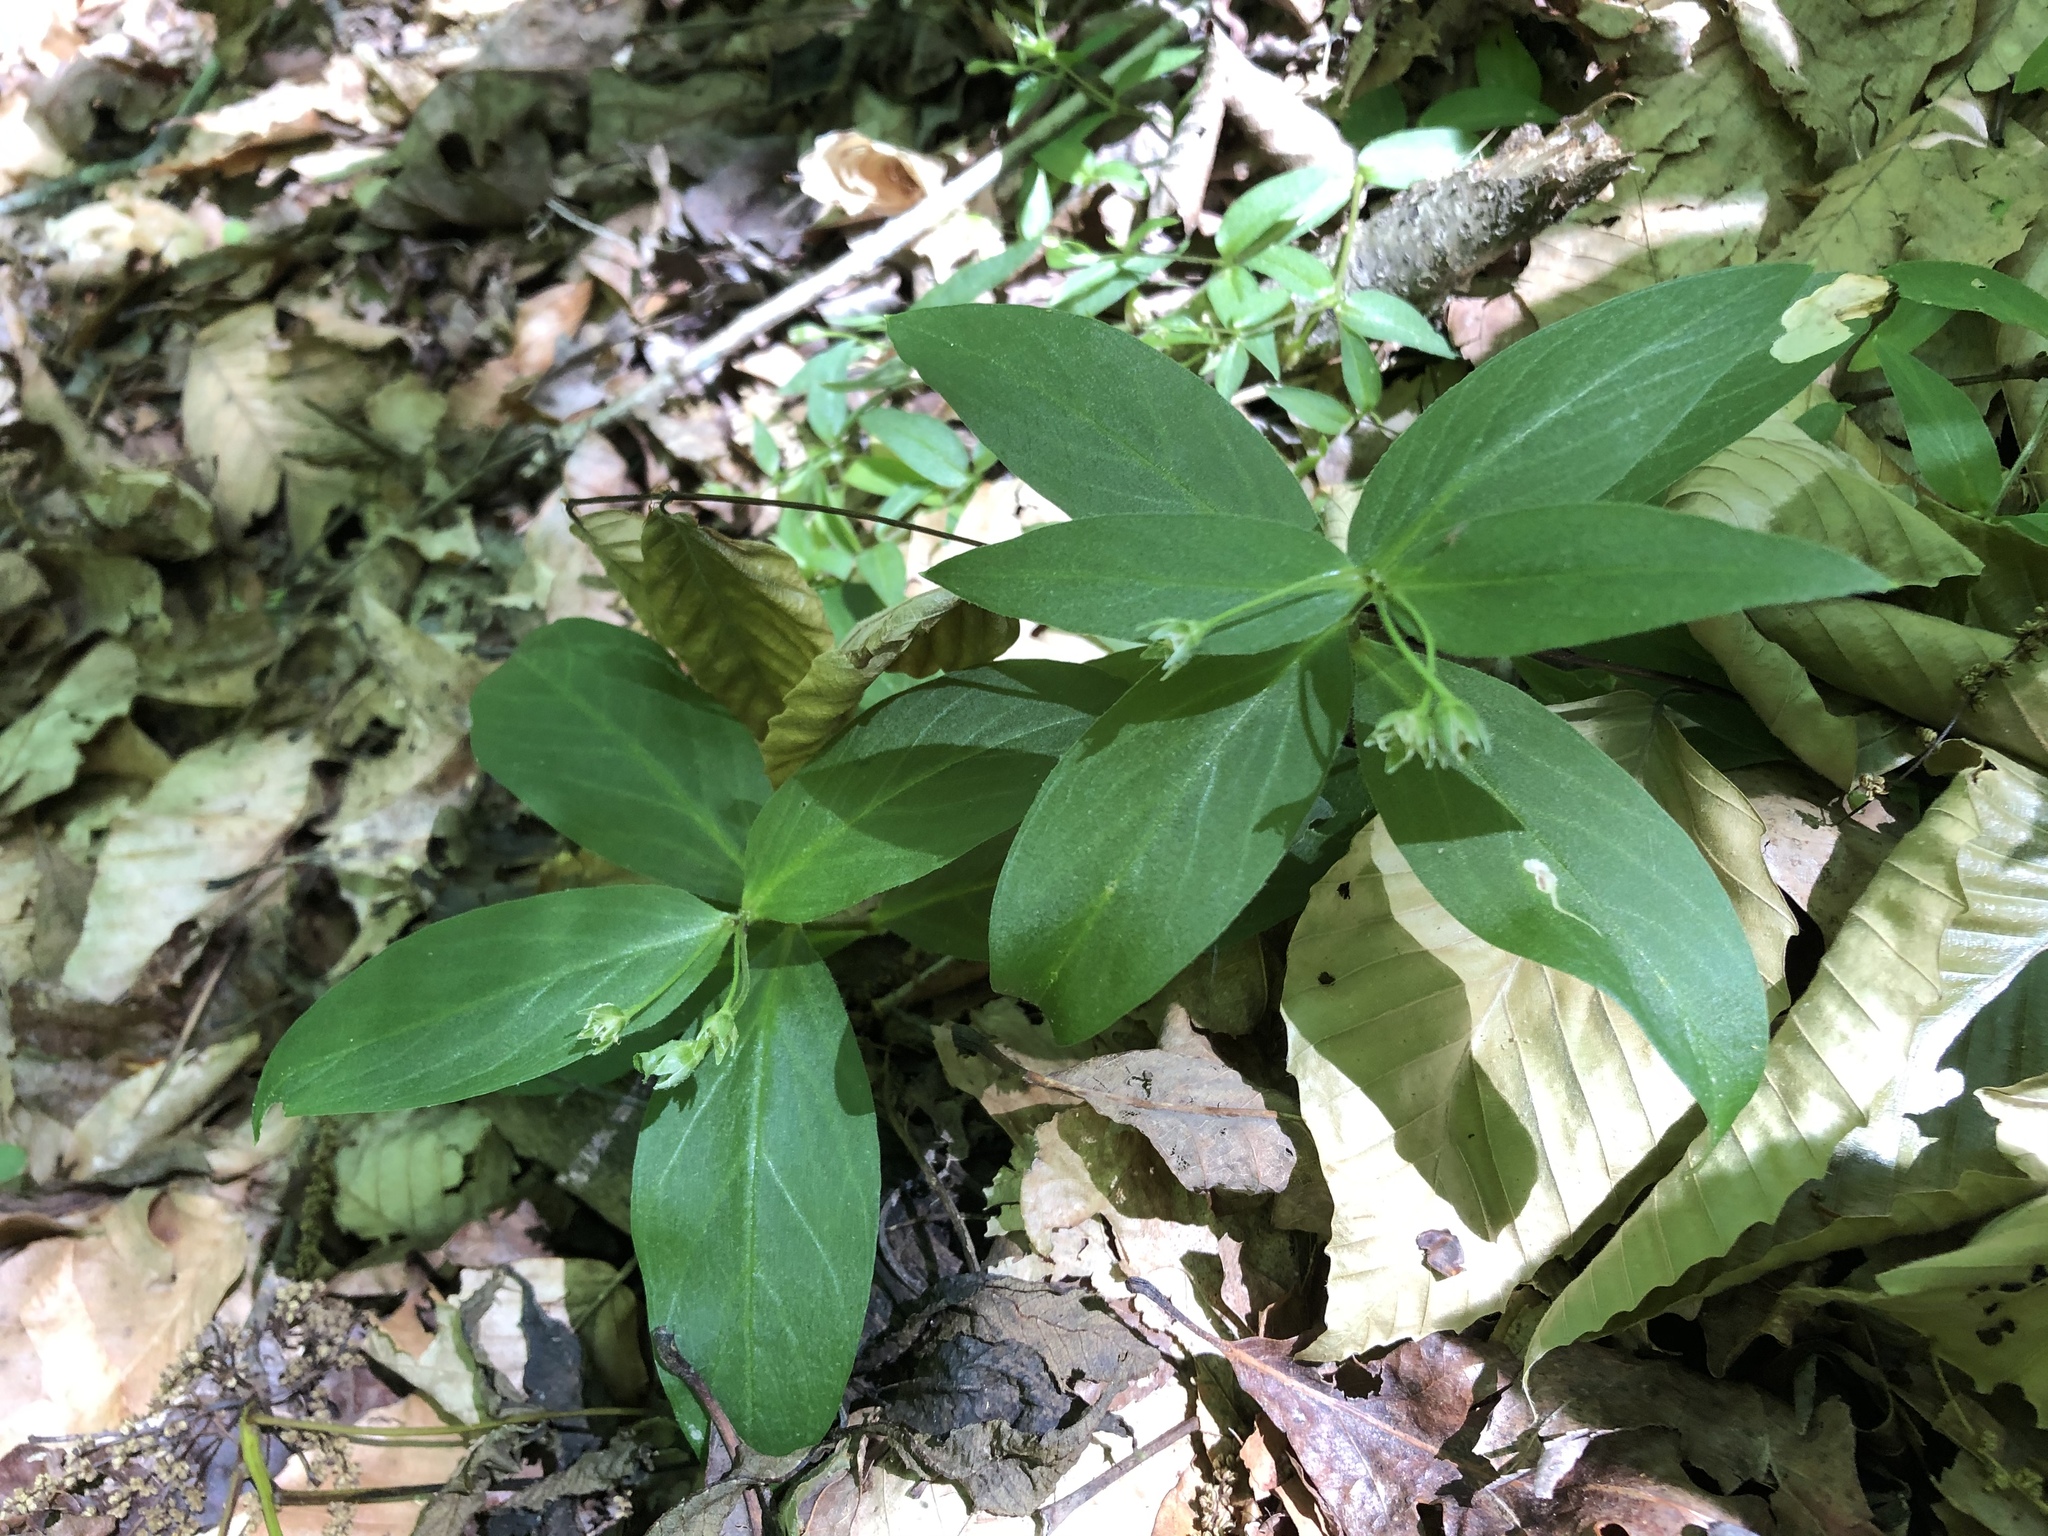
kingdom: Plantae
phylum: Tracheophyta
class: Magnoliopsida
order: Caryophyllales
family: Caryophyllaceae
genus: Stellaria
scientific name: Stellaria pubera
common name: Star chickweed
